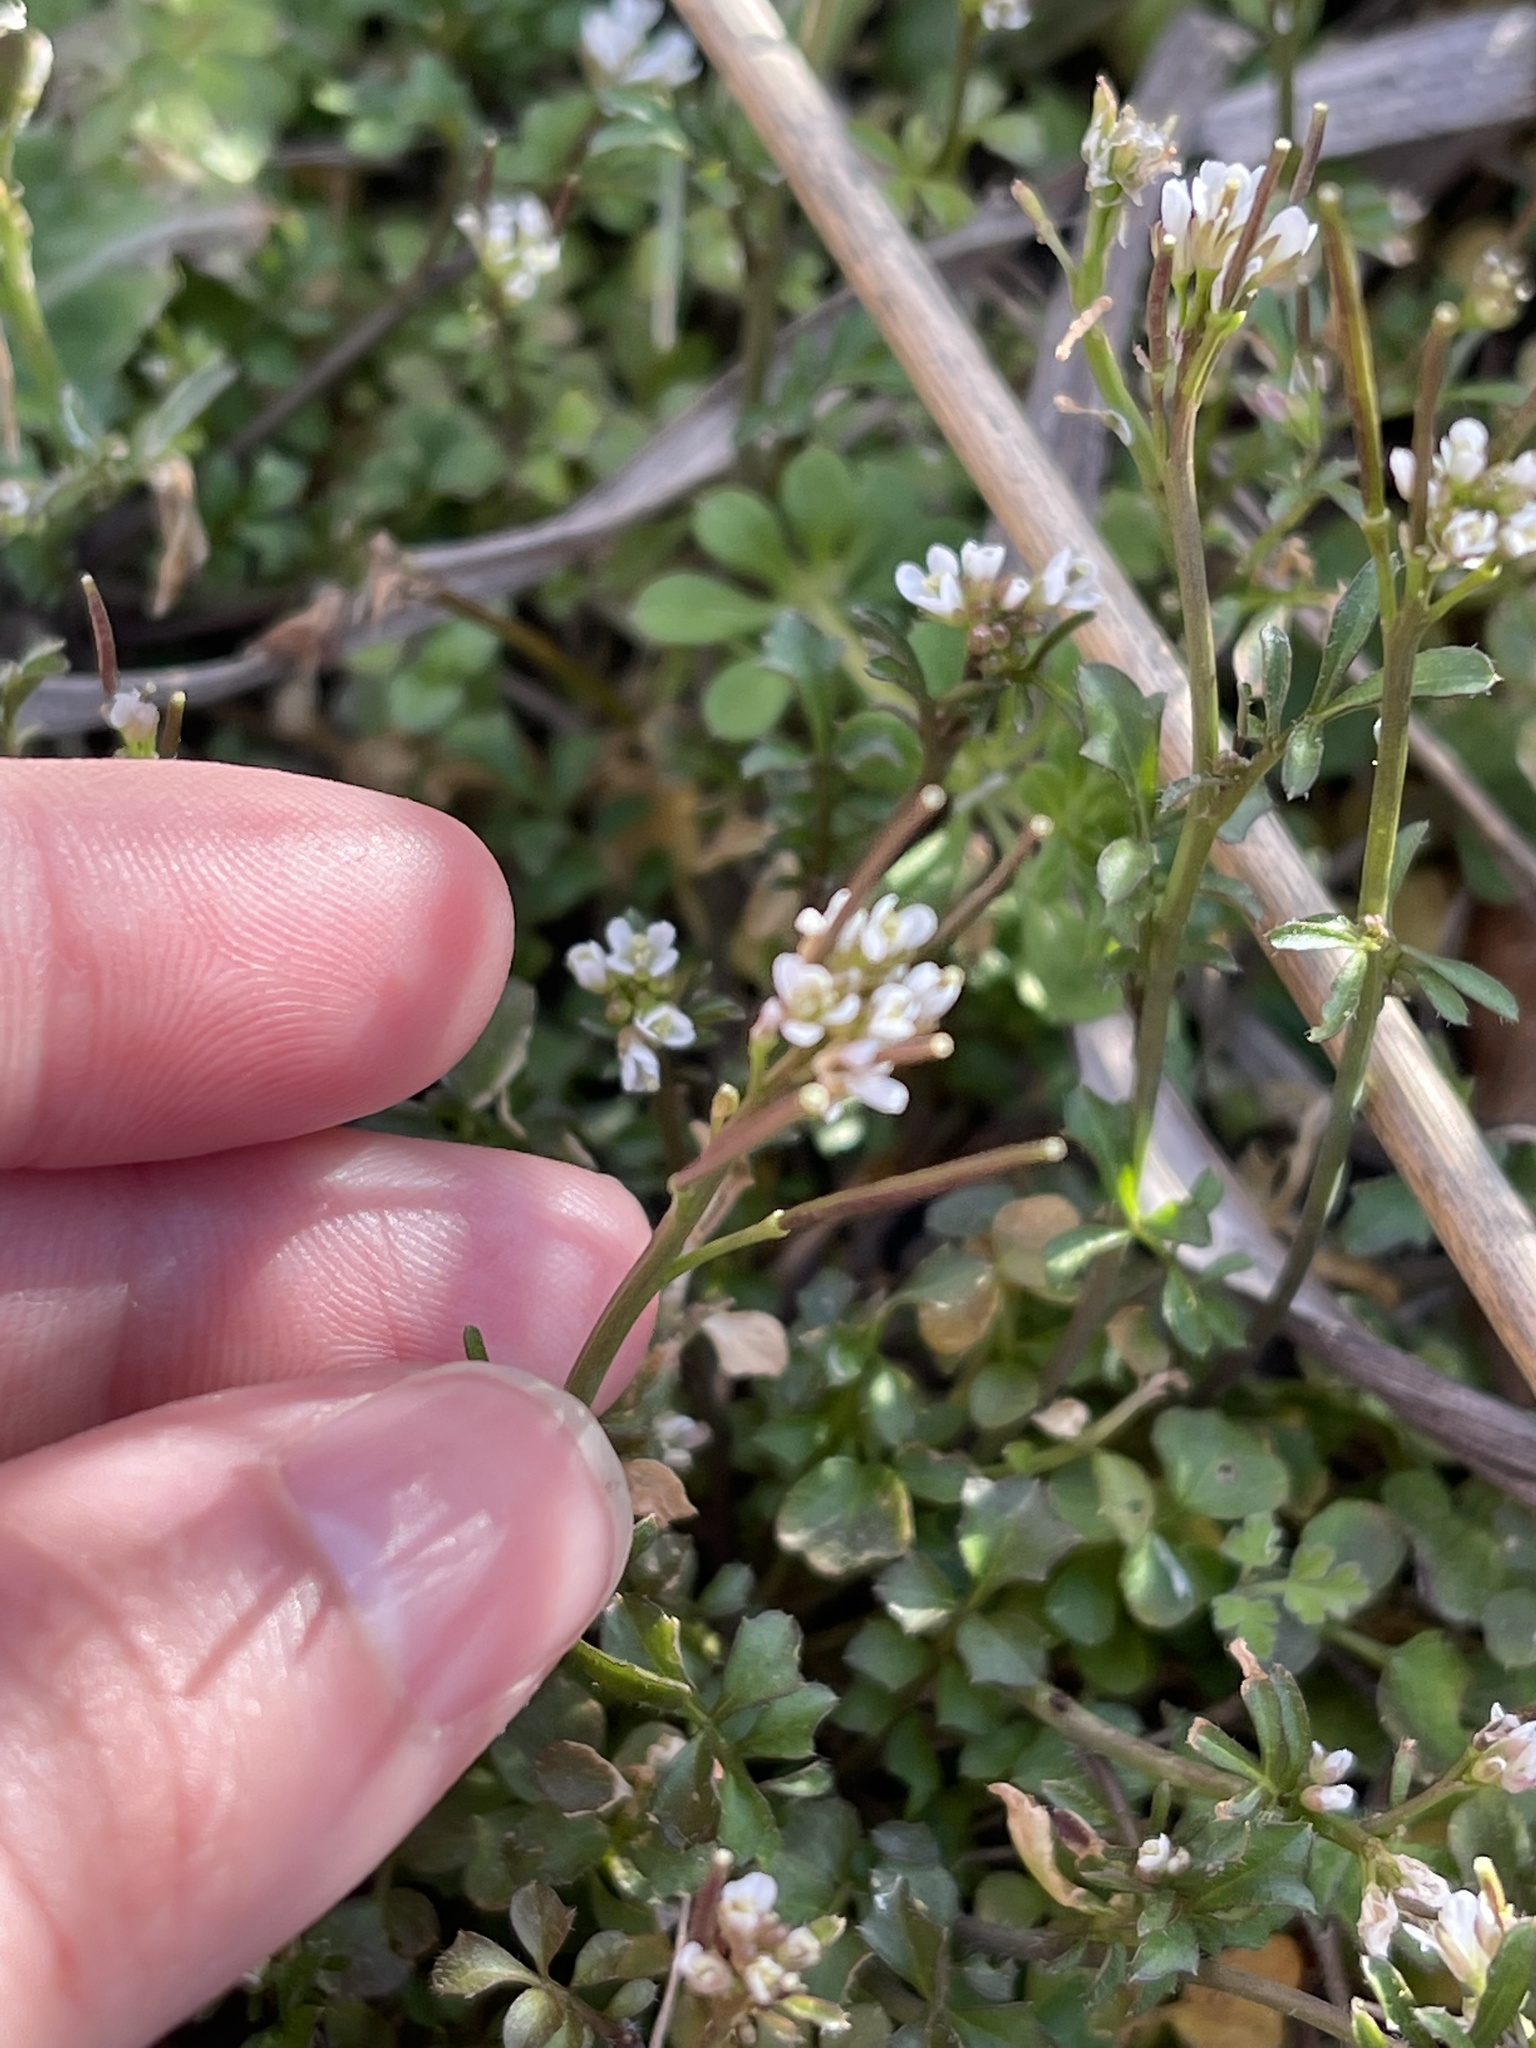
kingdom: Plantae
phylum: Tracheophyta
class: Magnoliopsida
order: Brassicales
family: Brassicaceae
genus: Cardamine
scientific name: Cardamine hirsuta
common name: Hairy bittercress
